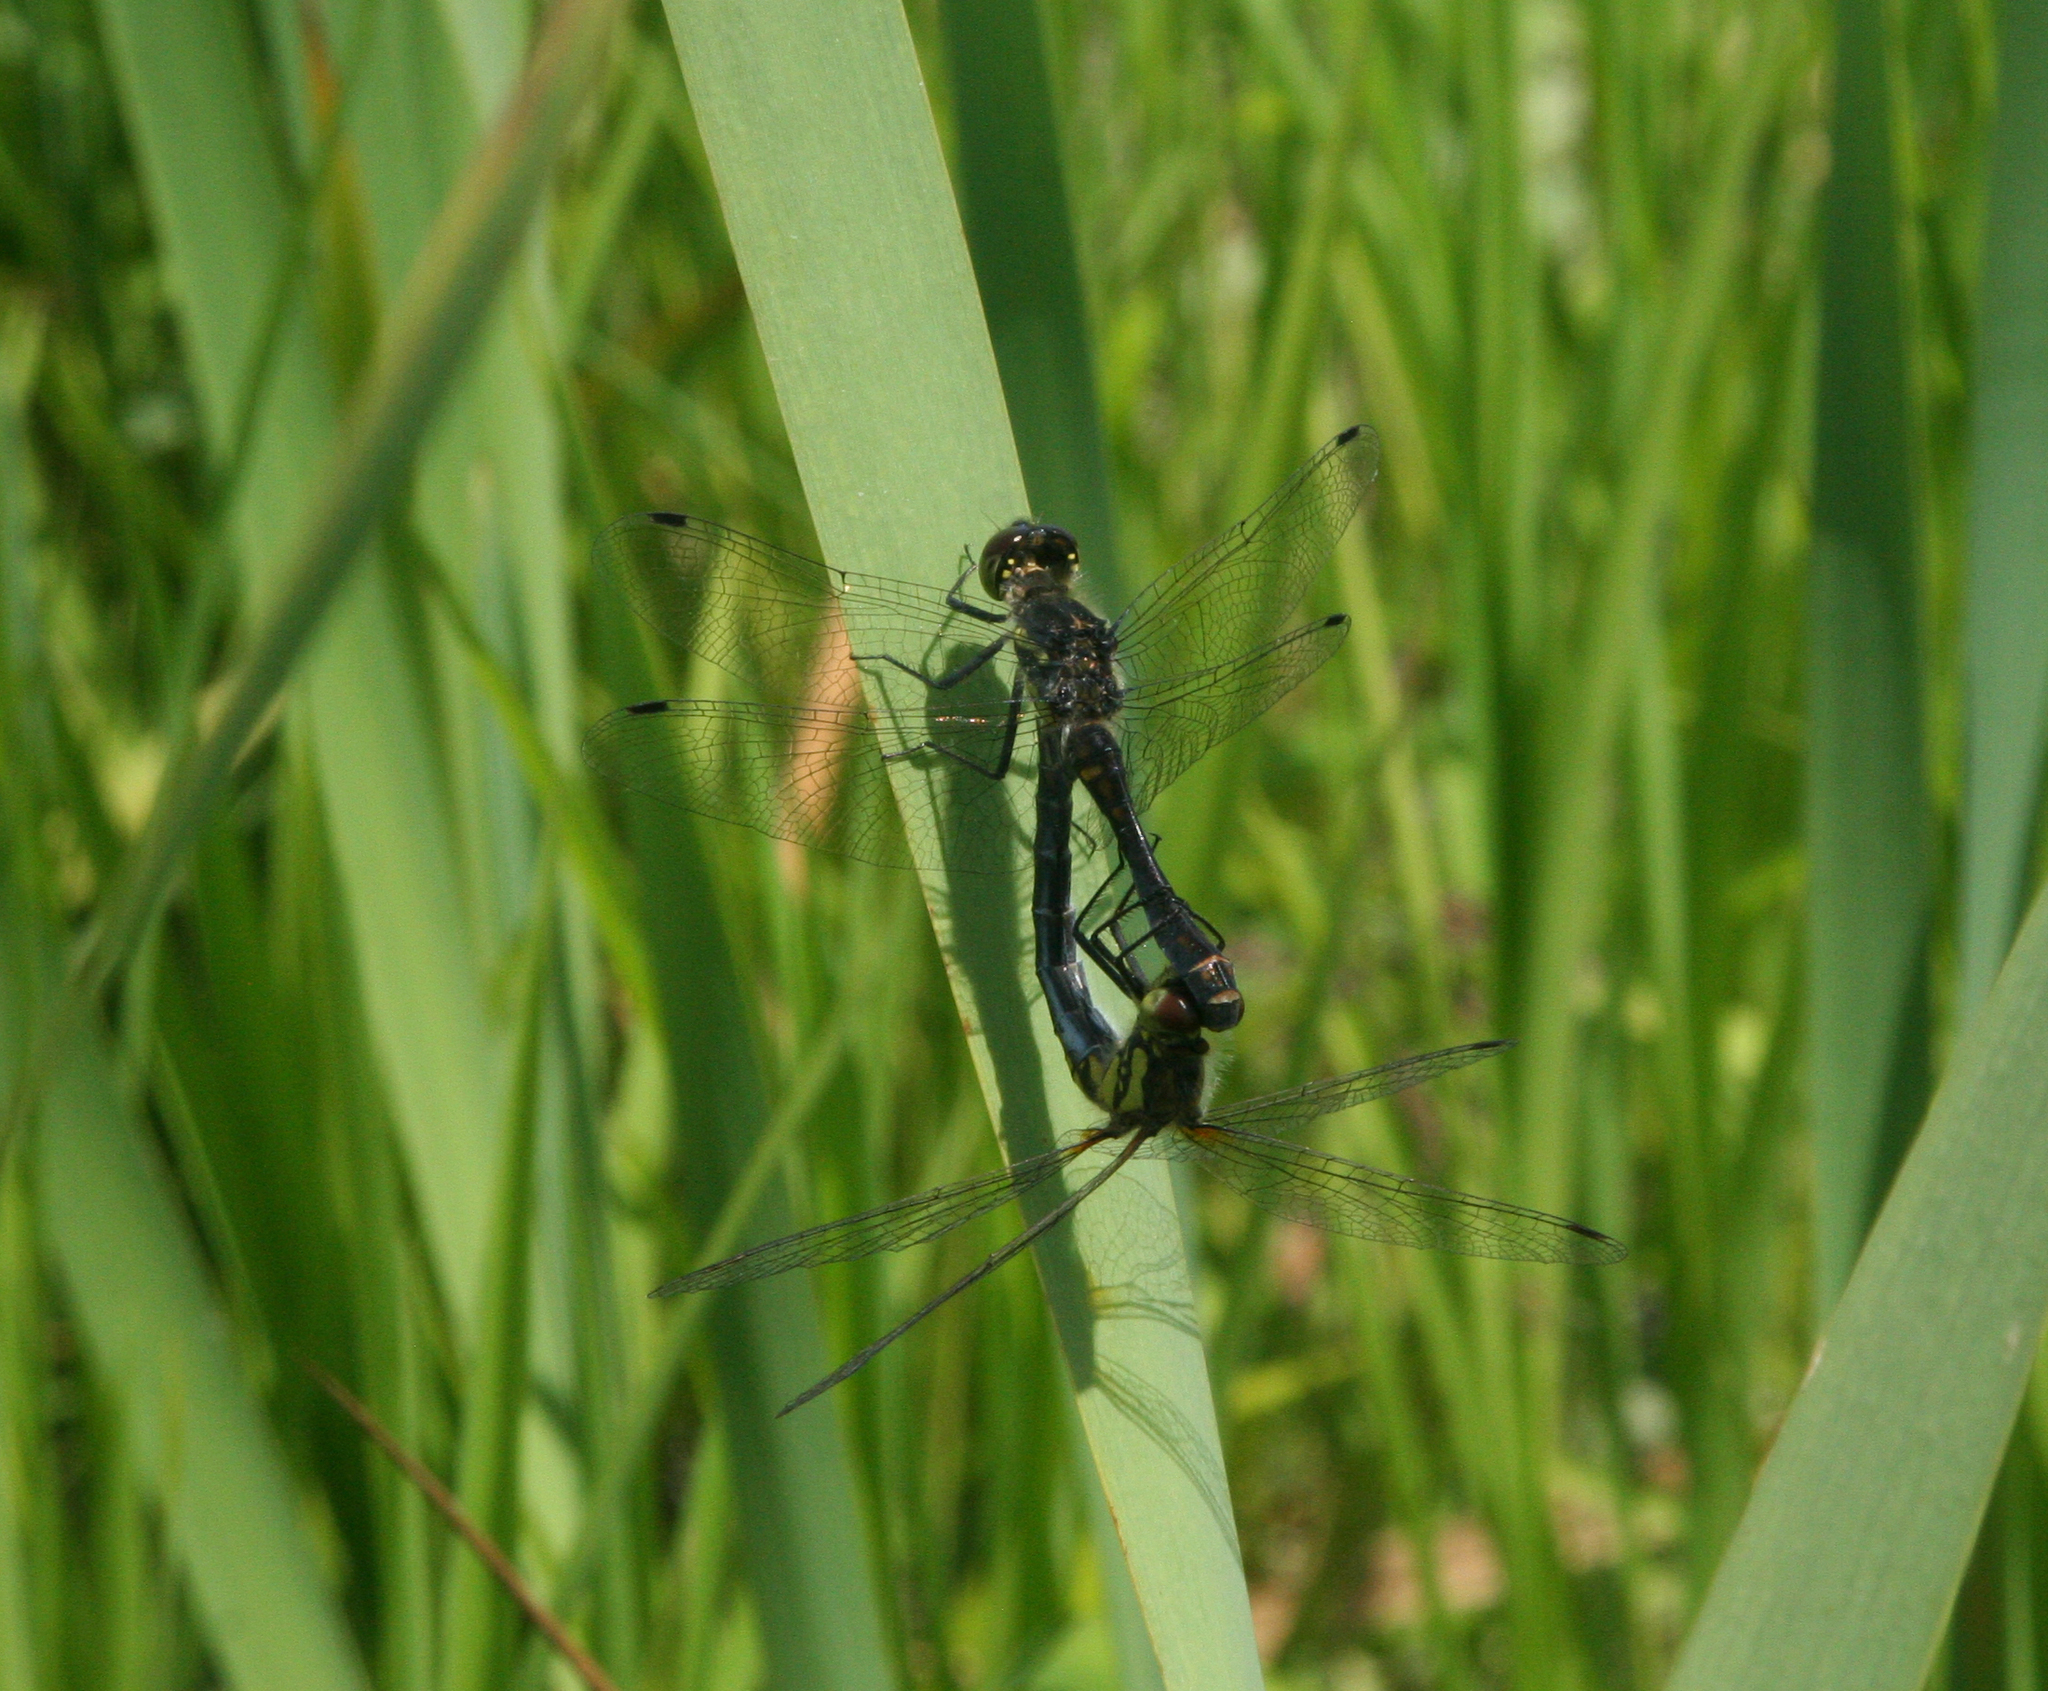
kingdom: Animalia
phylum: Arthropoda
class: Insecta
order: Odonata
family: Libellulidae
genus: Sympetrum
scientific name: Sympetrum danae
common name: Black darter
